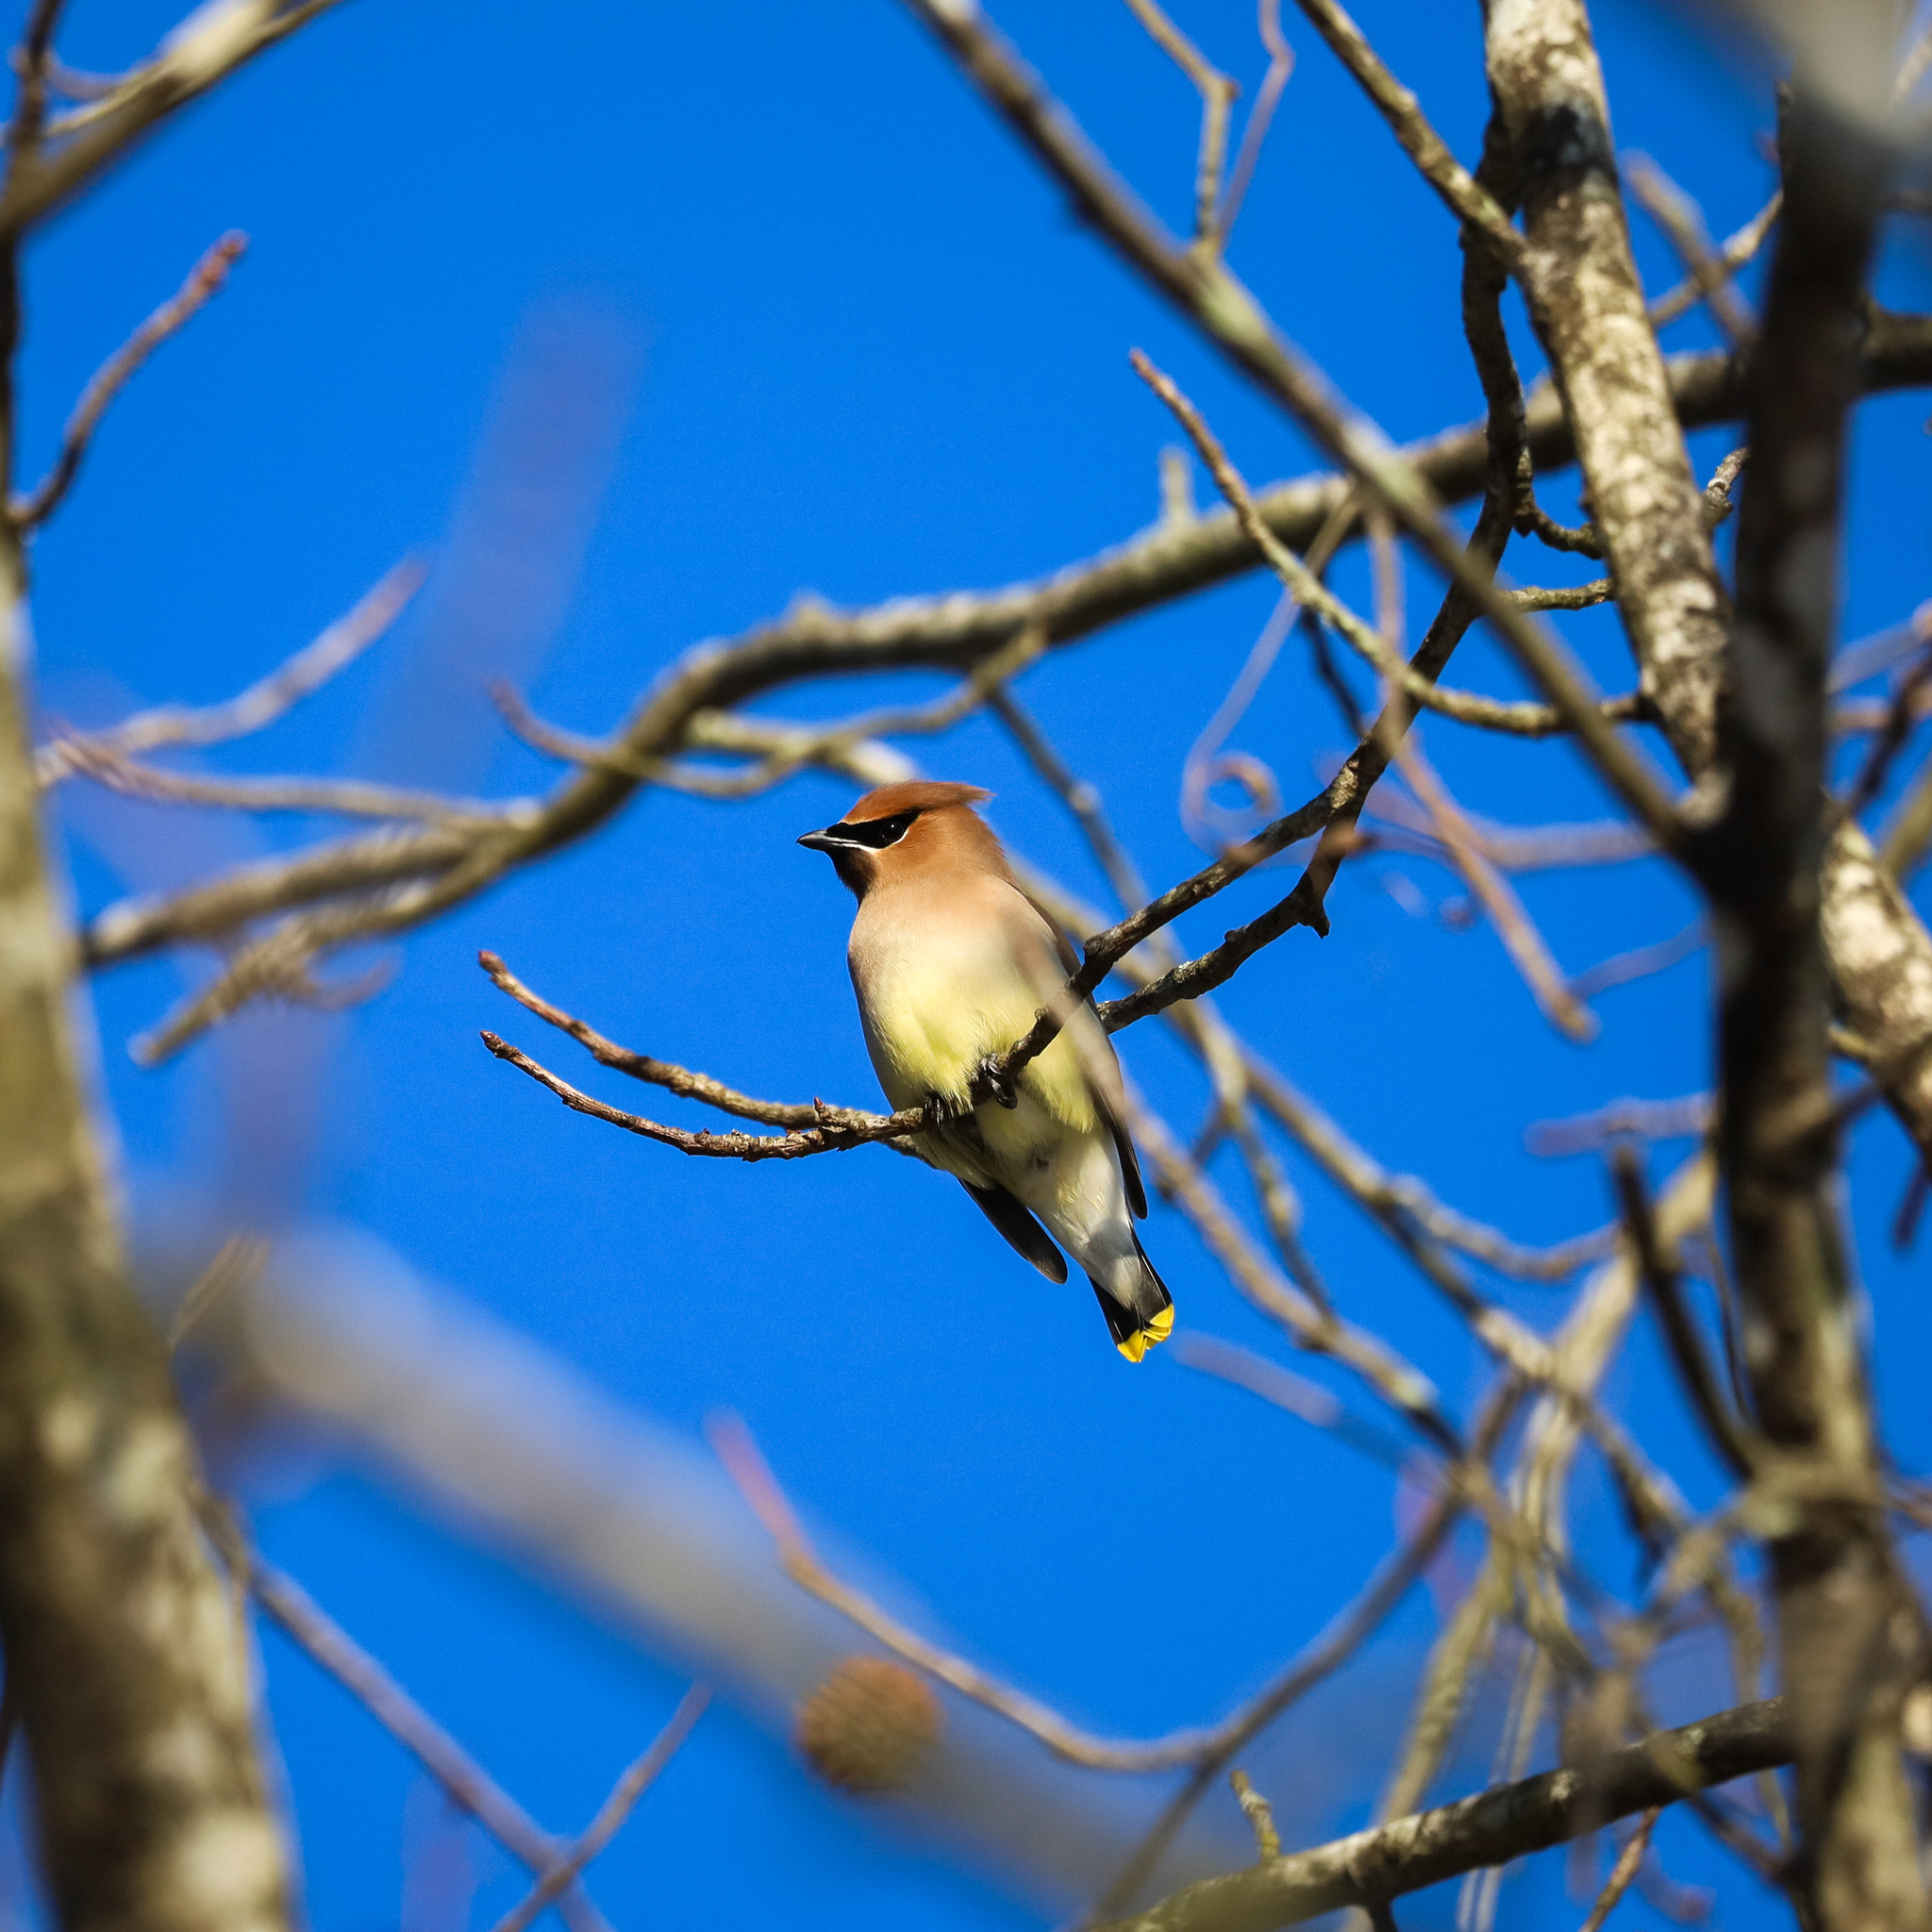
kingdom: Animalia
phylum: Chordata
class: Aves
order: Passeriformes
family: Bombycillidae
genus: Bombycilla
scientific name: Bombycilla cedrorum
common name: Cedar waxwing
